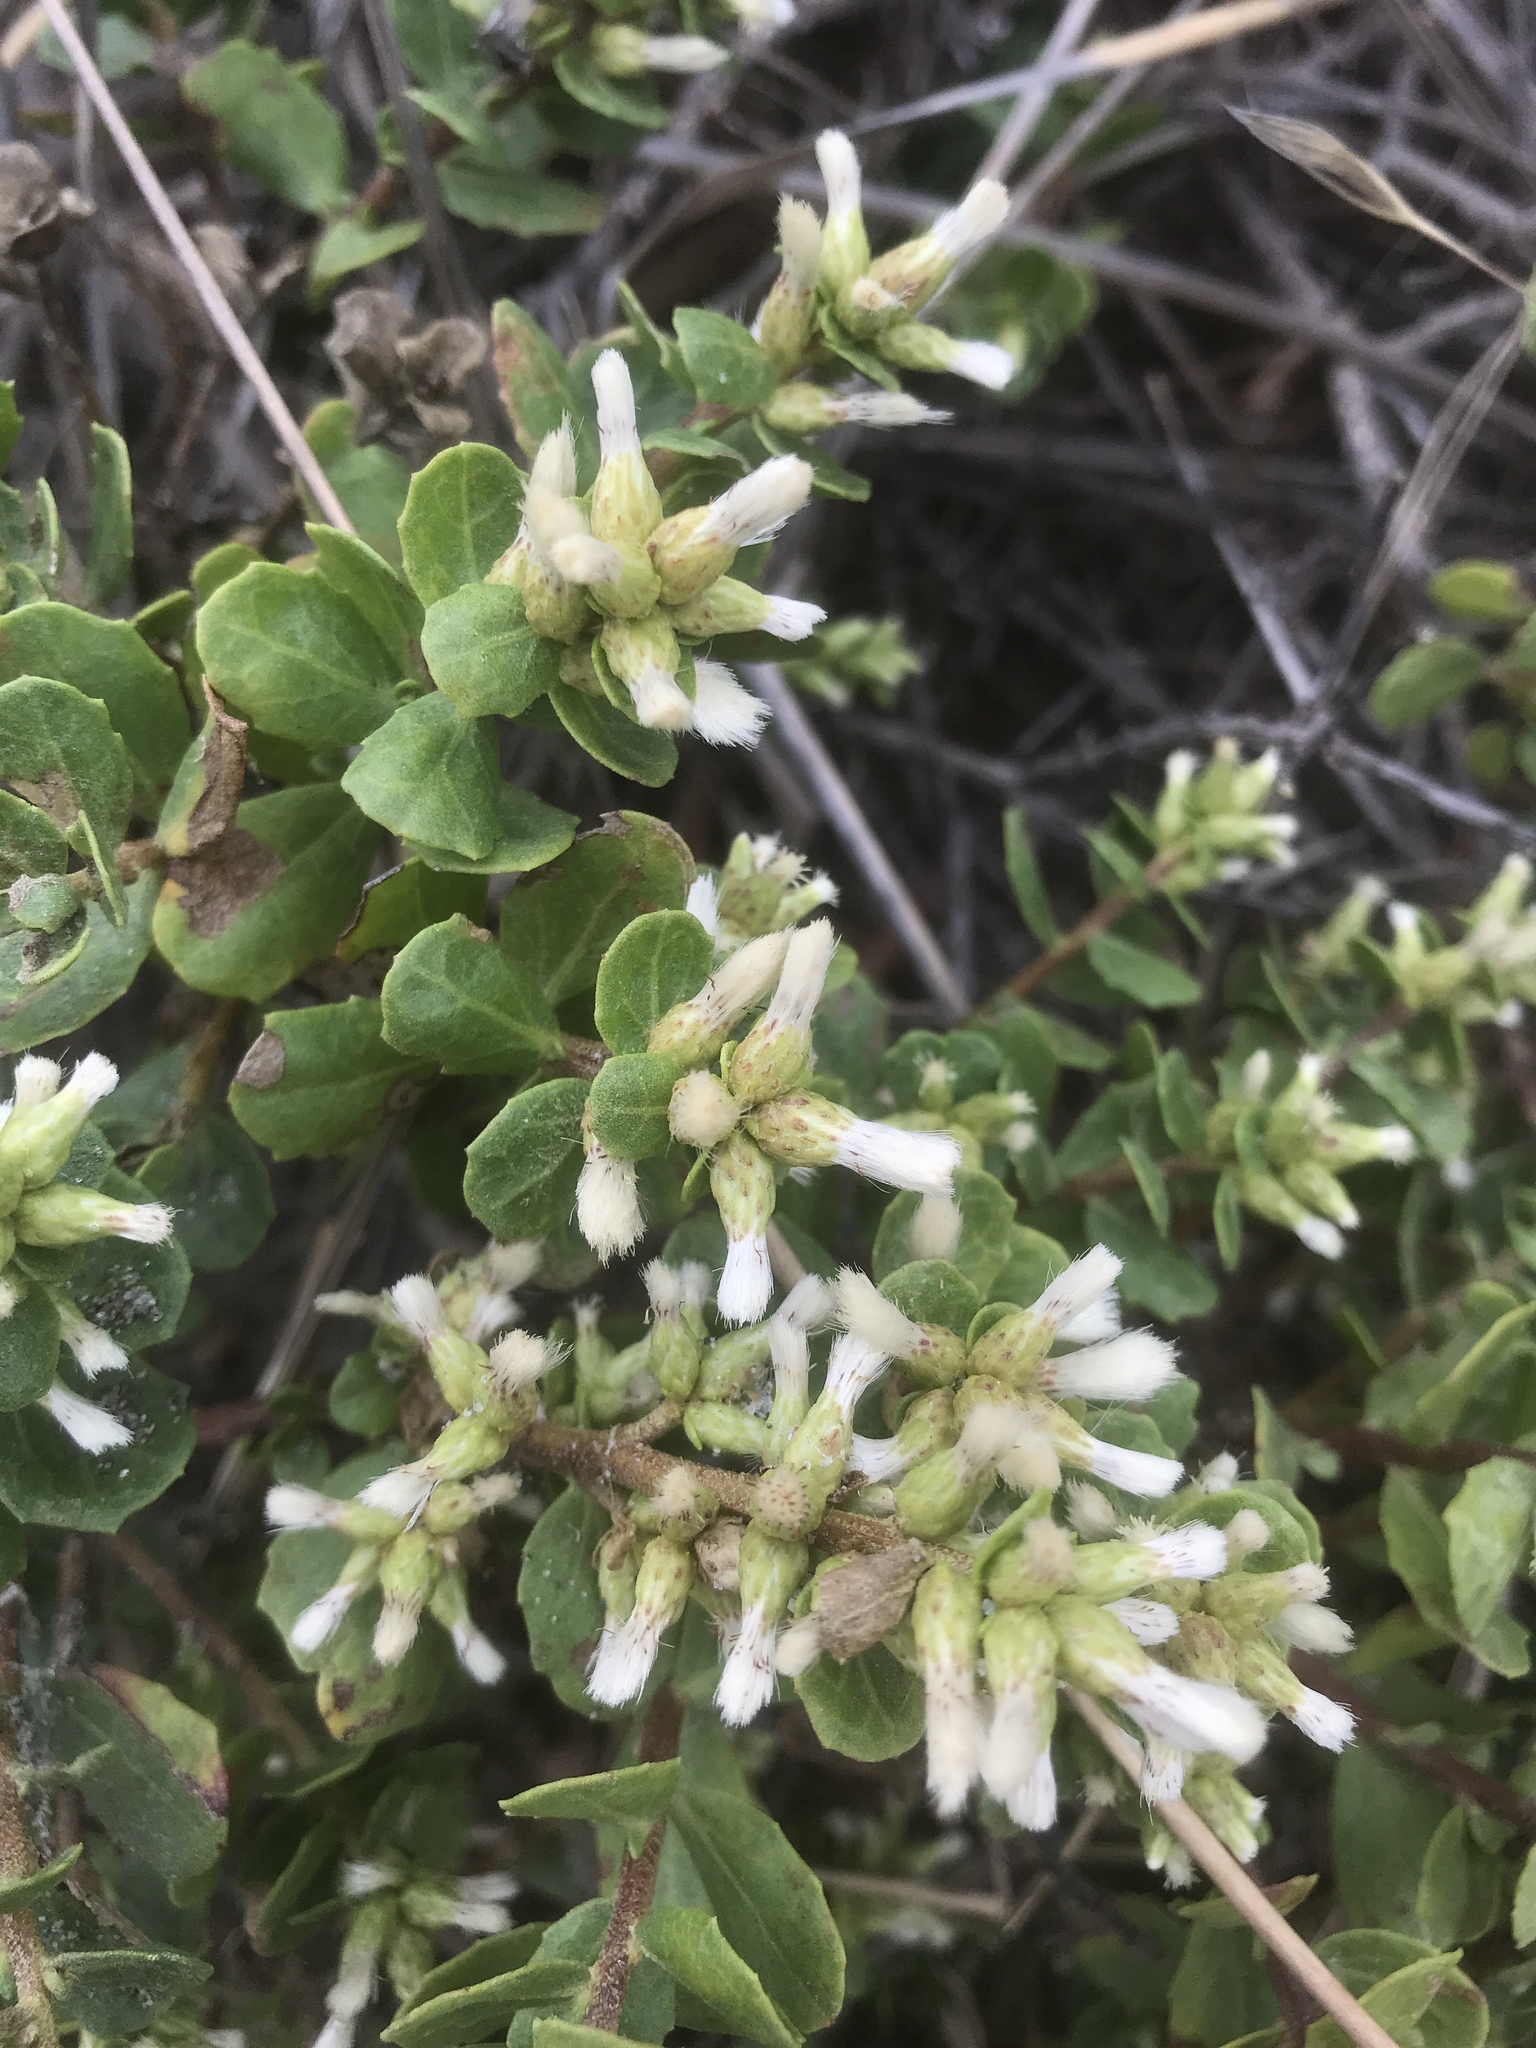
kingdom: Plantae
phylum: Tracheophyta
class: Magnoliopsida
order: Asterales
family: Asteraceae
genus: Baccharis
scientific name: Baccharis pilularis
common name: Coyotebrush
